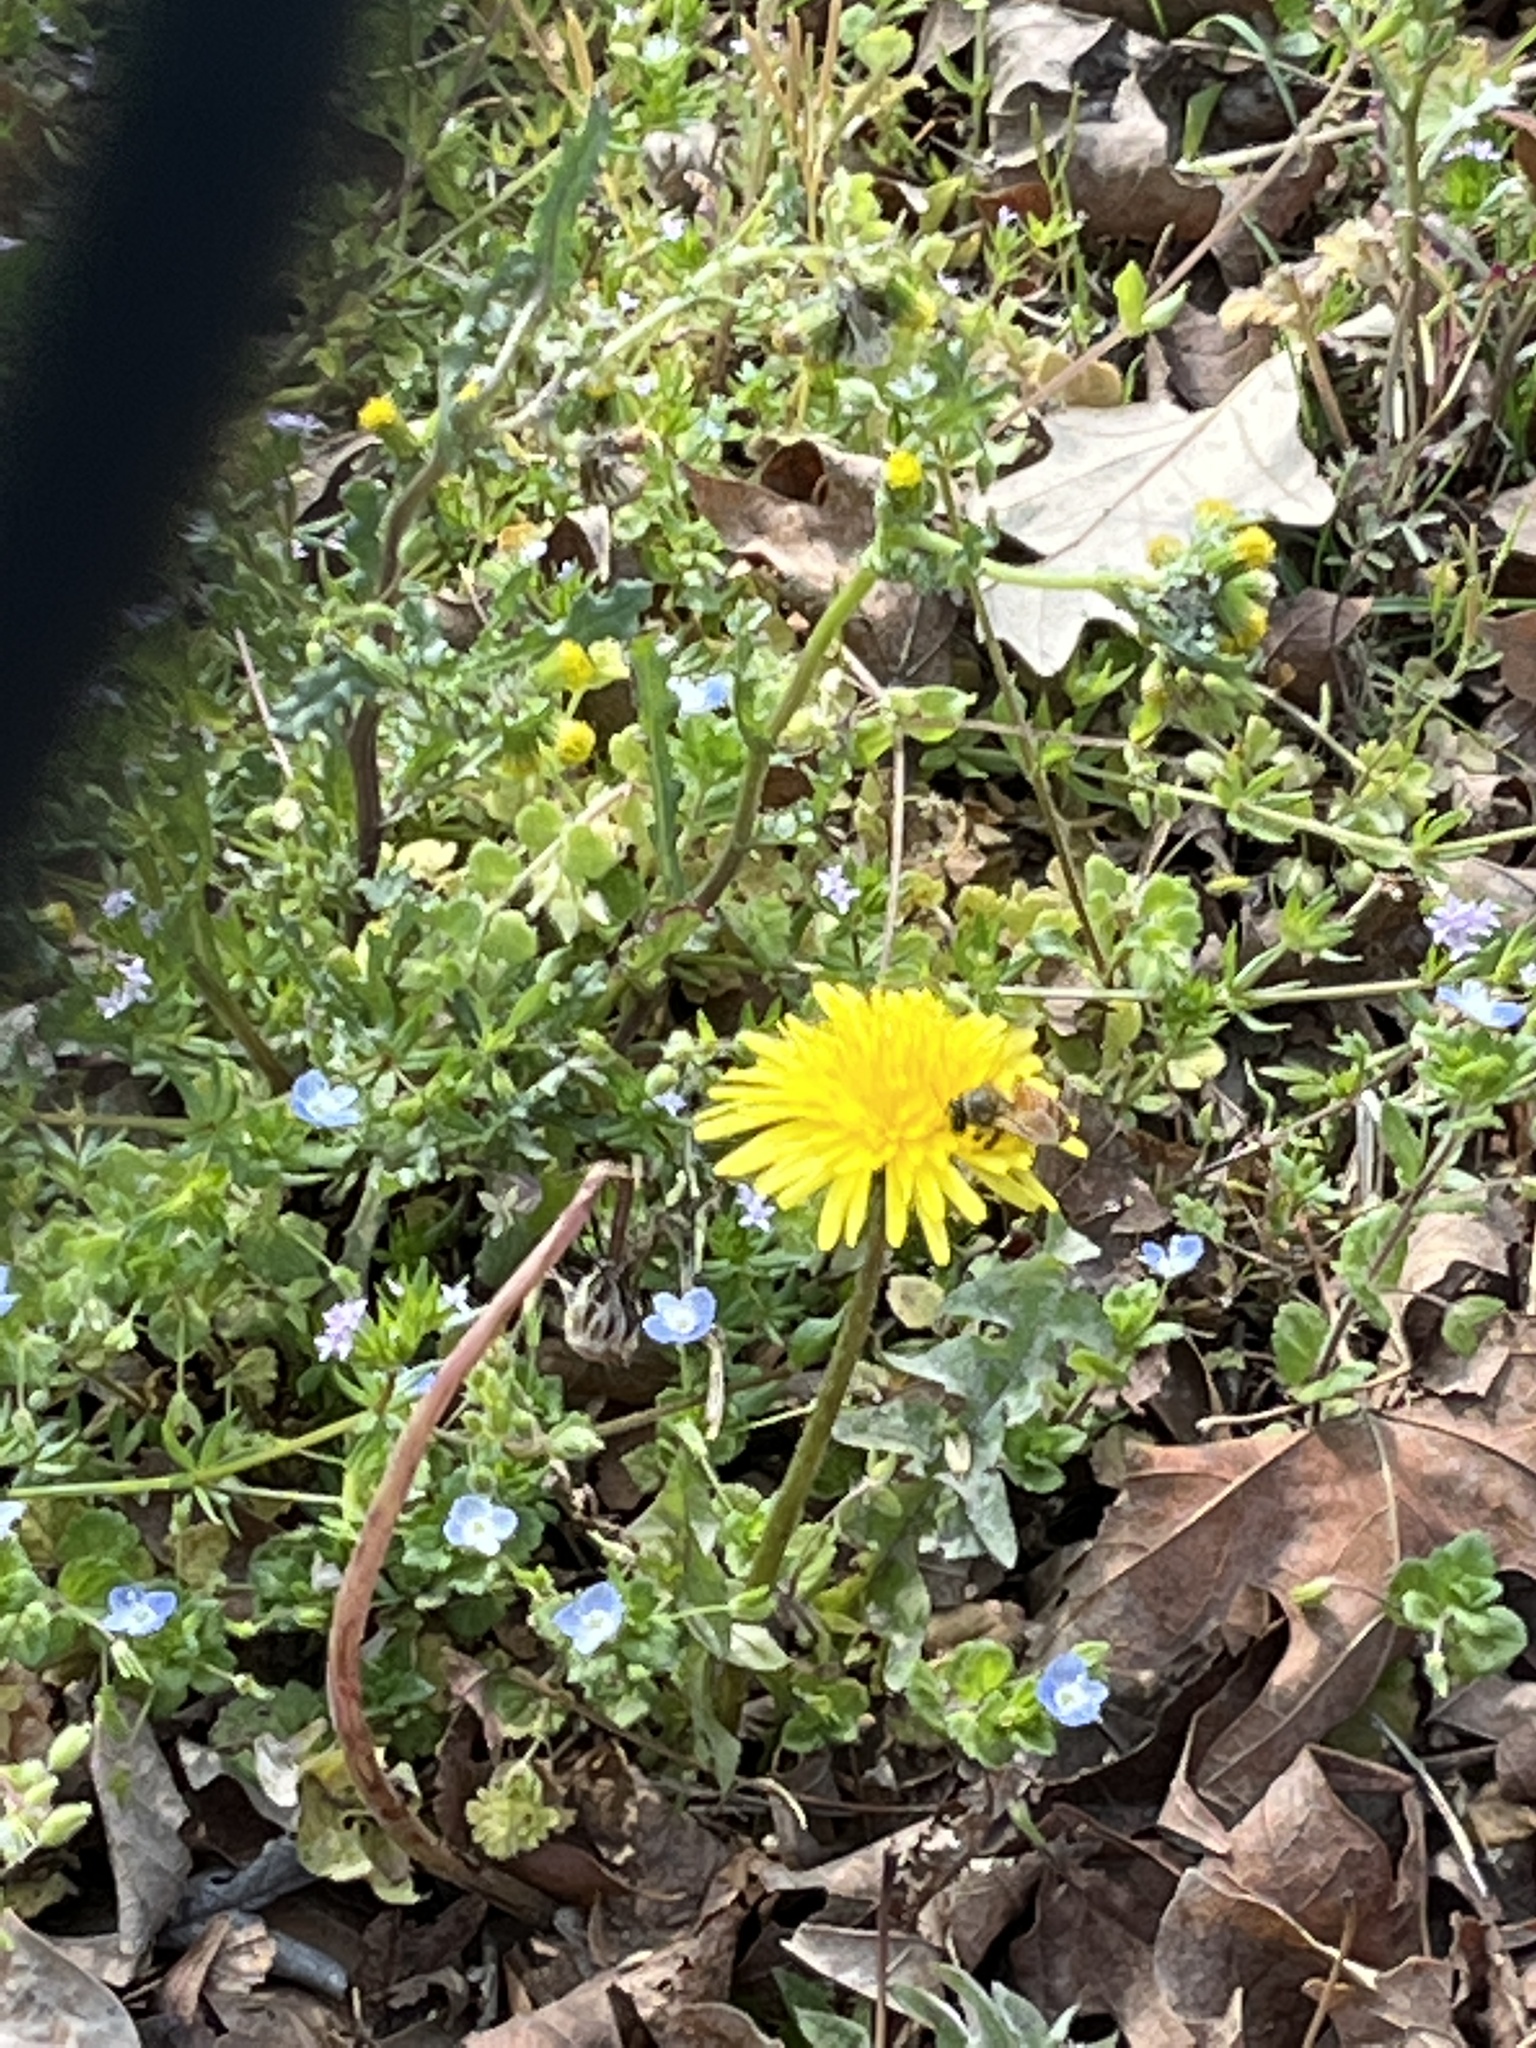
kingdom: Animalia
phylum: Arthropoda
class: Insecta
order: Hymenoptera
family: Apidae
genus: Apis
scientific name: Apis mellifera
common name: Honey bee
